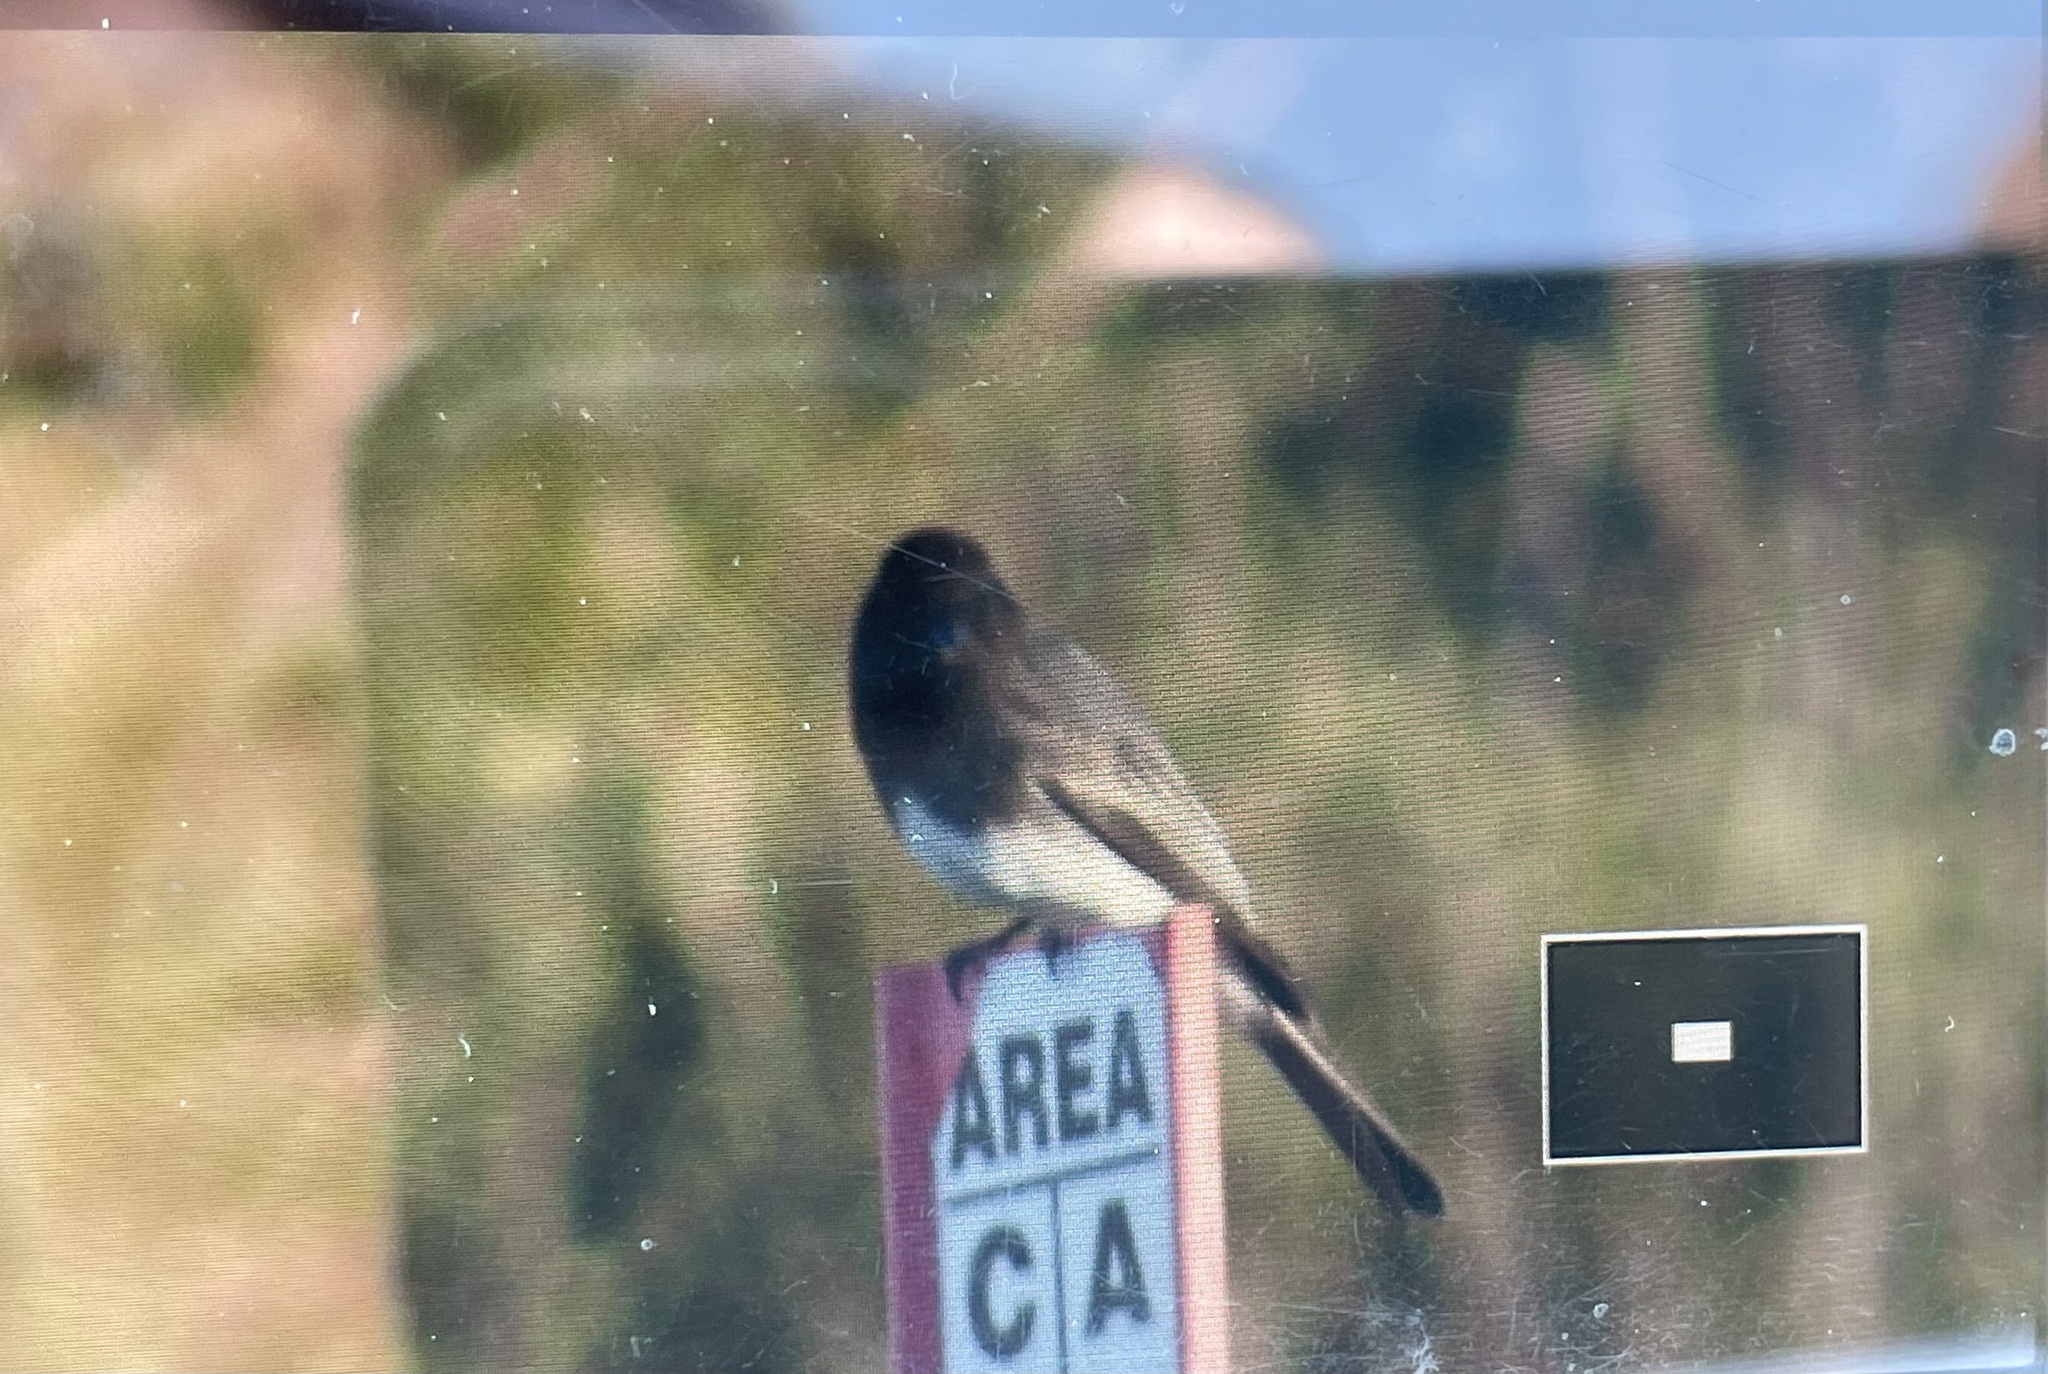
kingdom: Animalia
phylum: Chordata
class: Aves
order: Passeriformes
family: Tyrannidae
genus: Sayornis
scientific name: Sayornis nigricans
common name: Black phoebe
